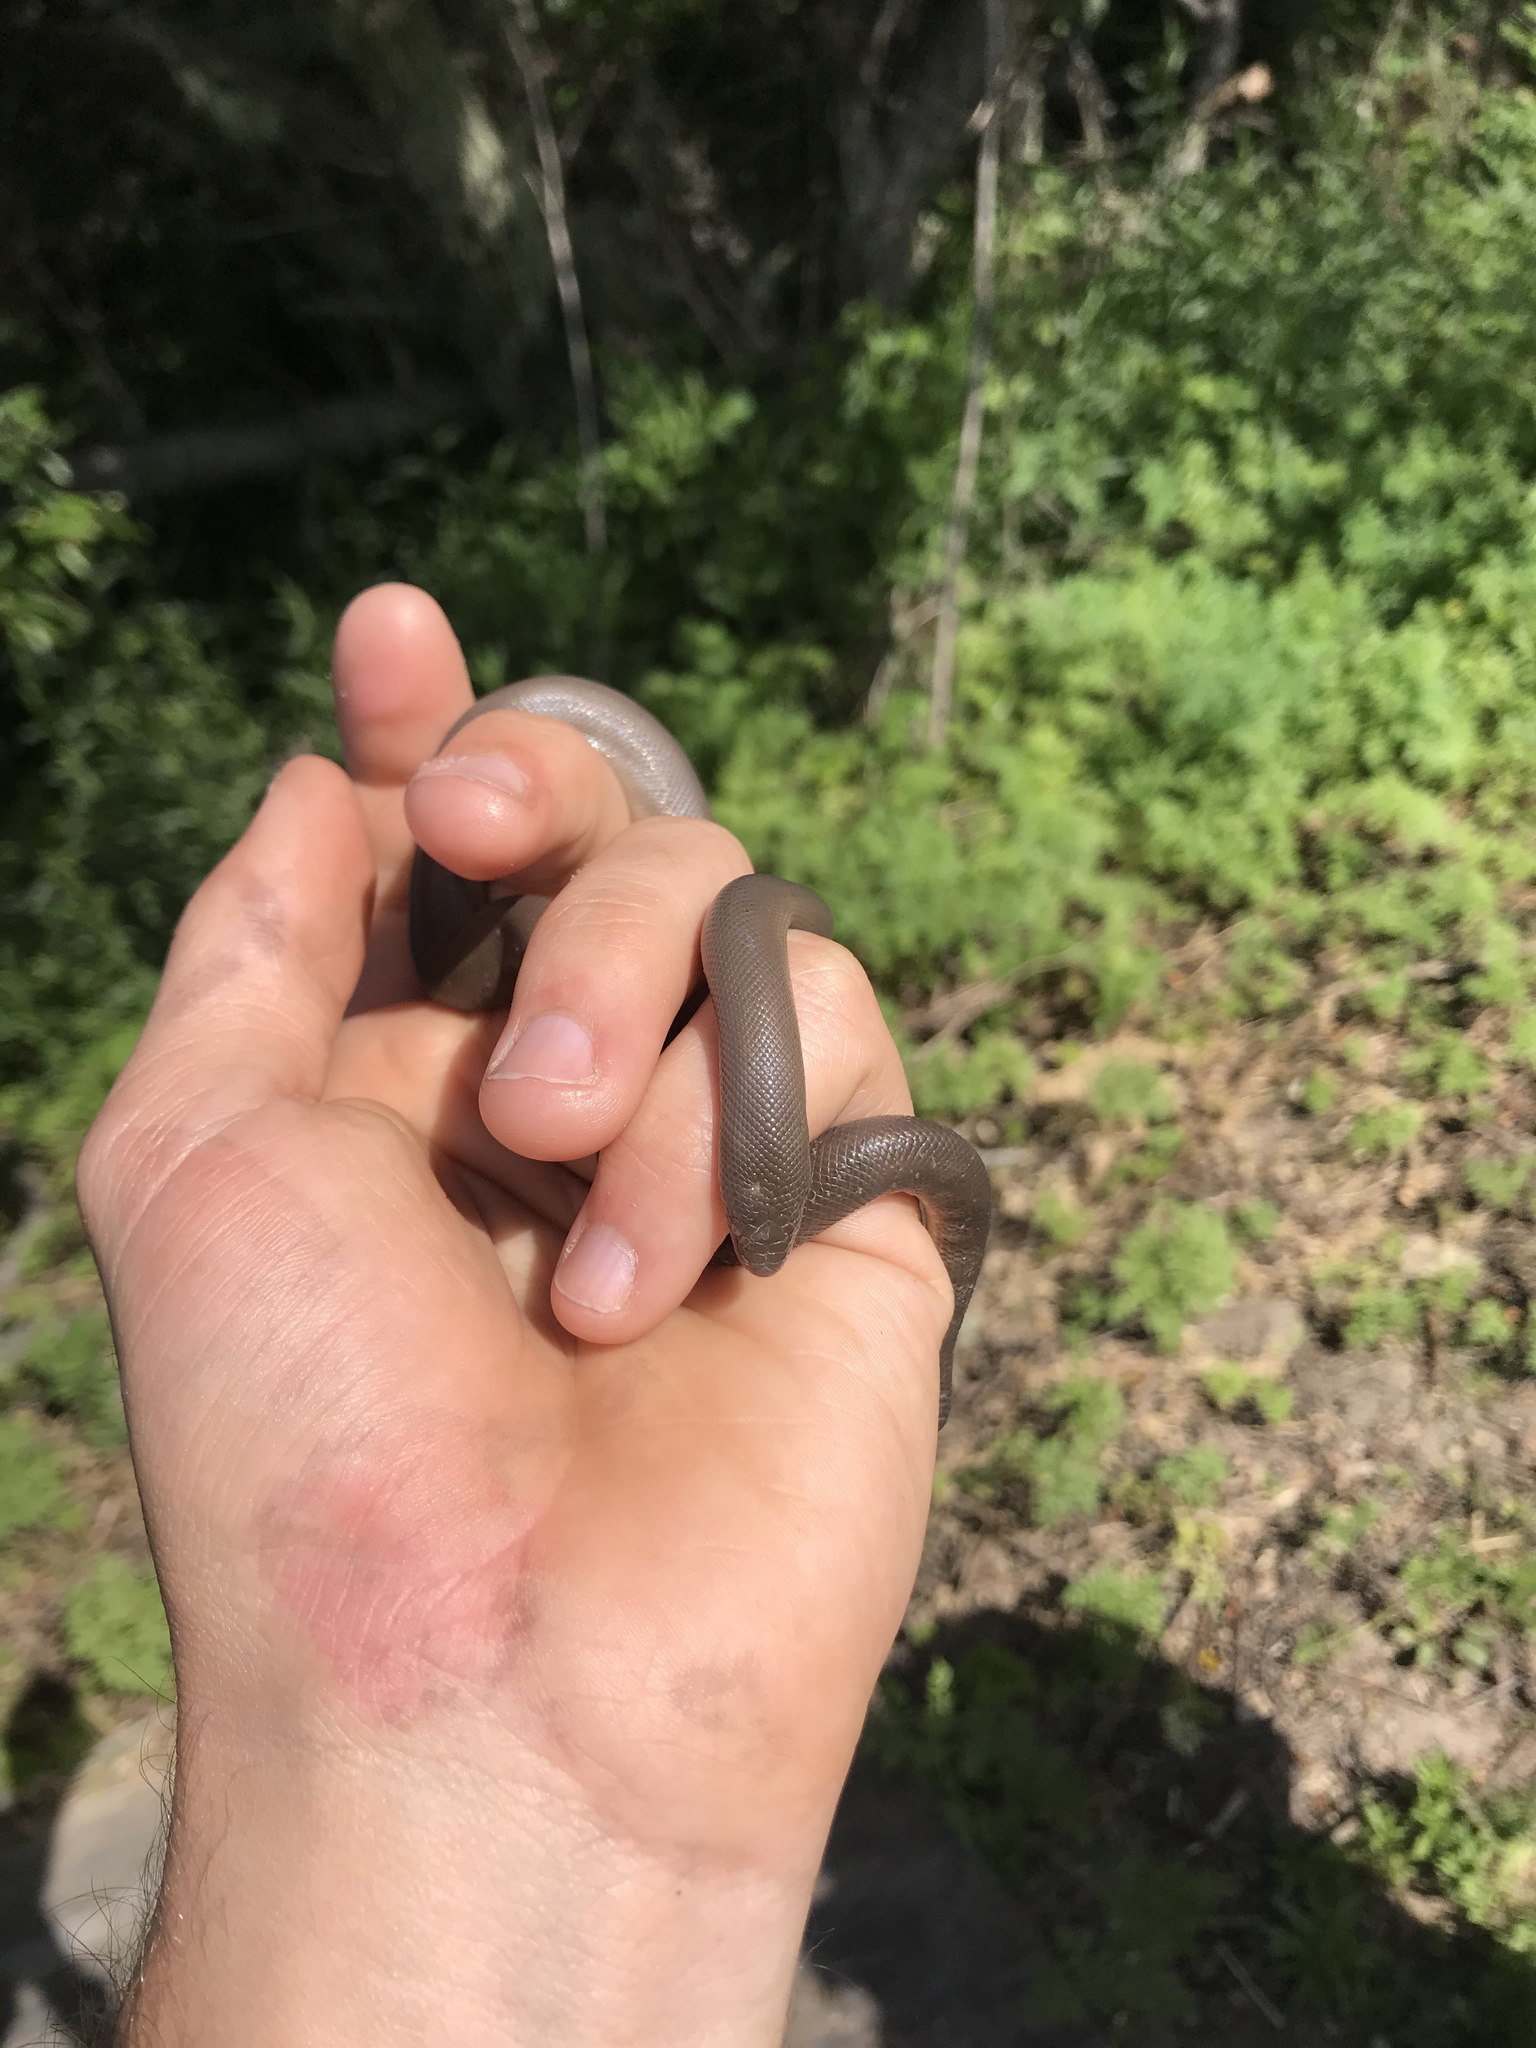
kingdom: Animalia
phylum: Chordata
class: Squamata
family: Boidae
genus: Charina
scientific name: Charina bottae
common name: Northern rubber boa
